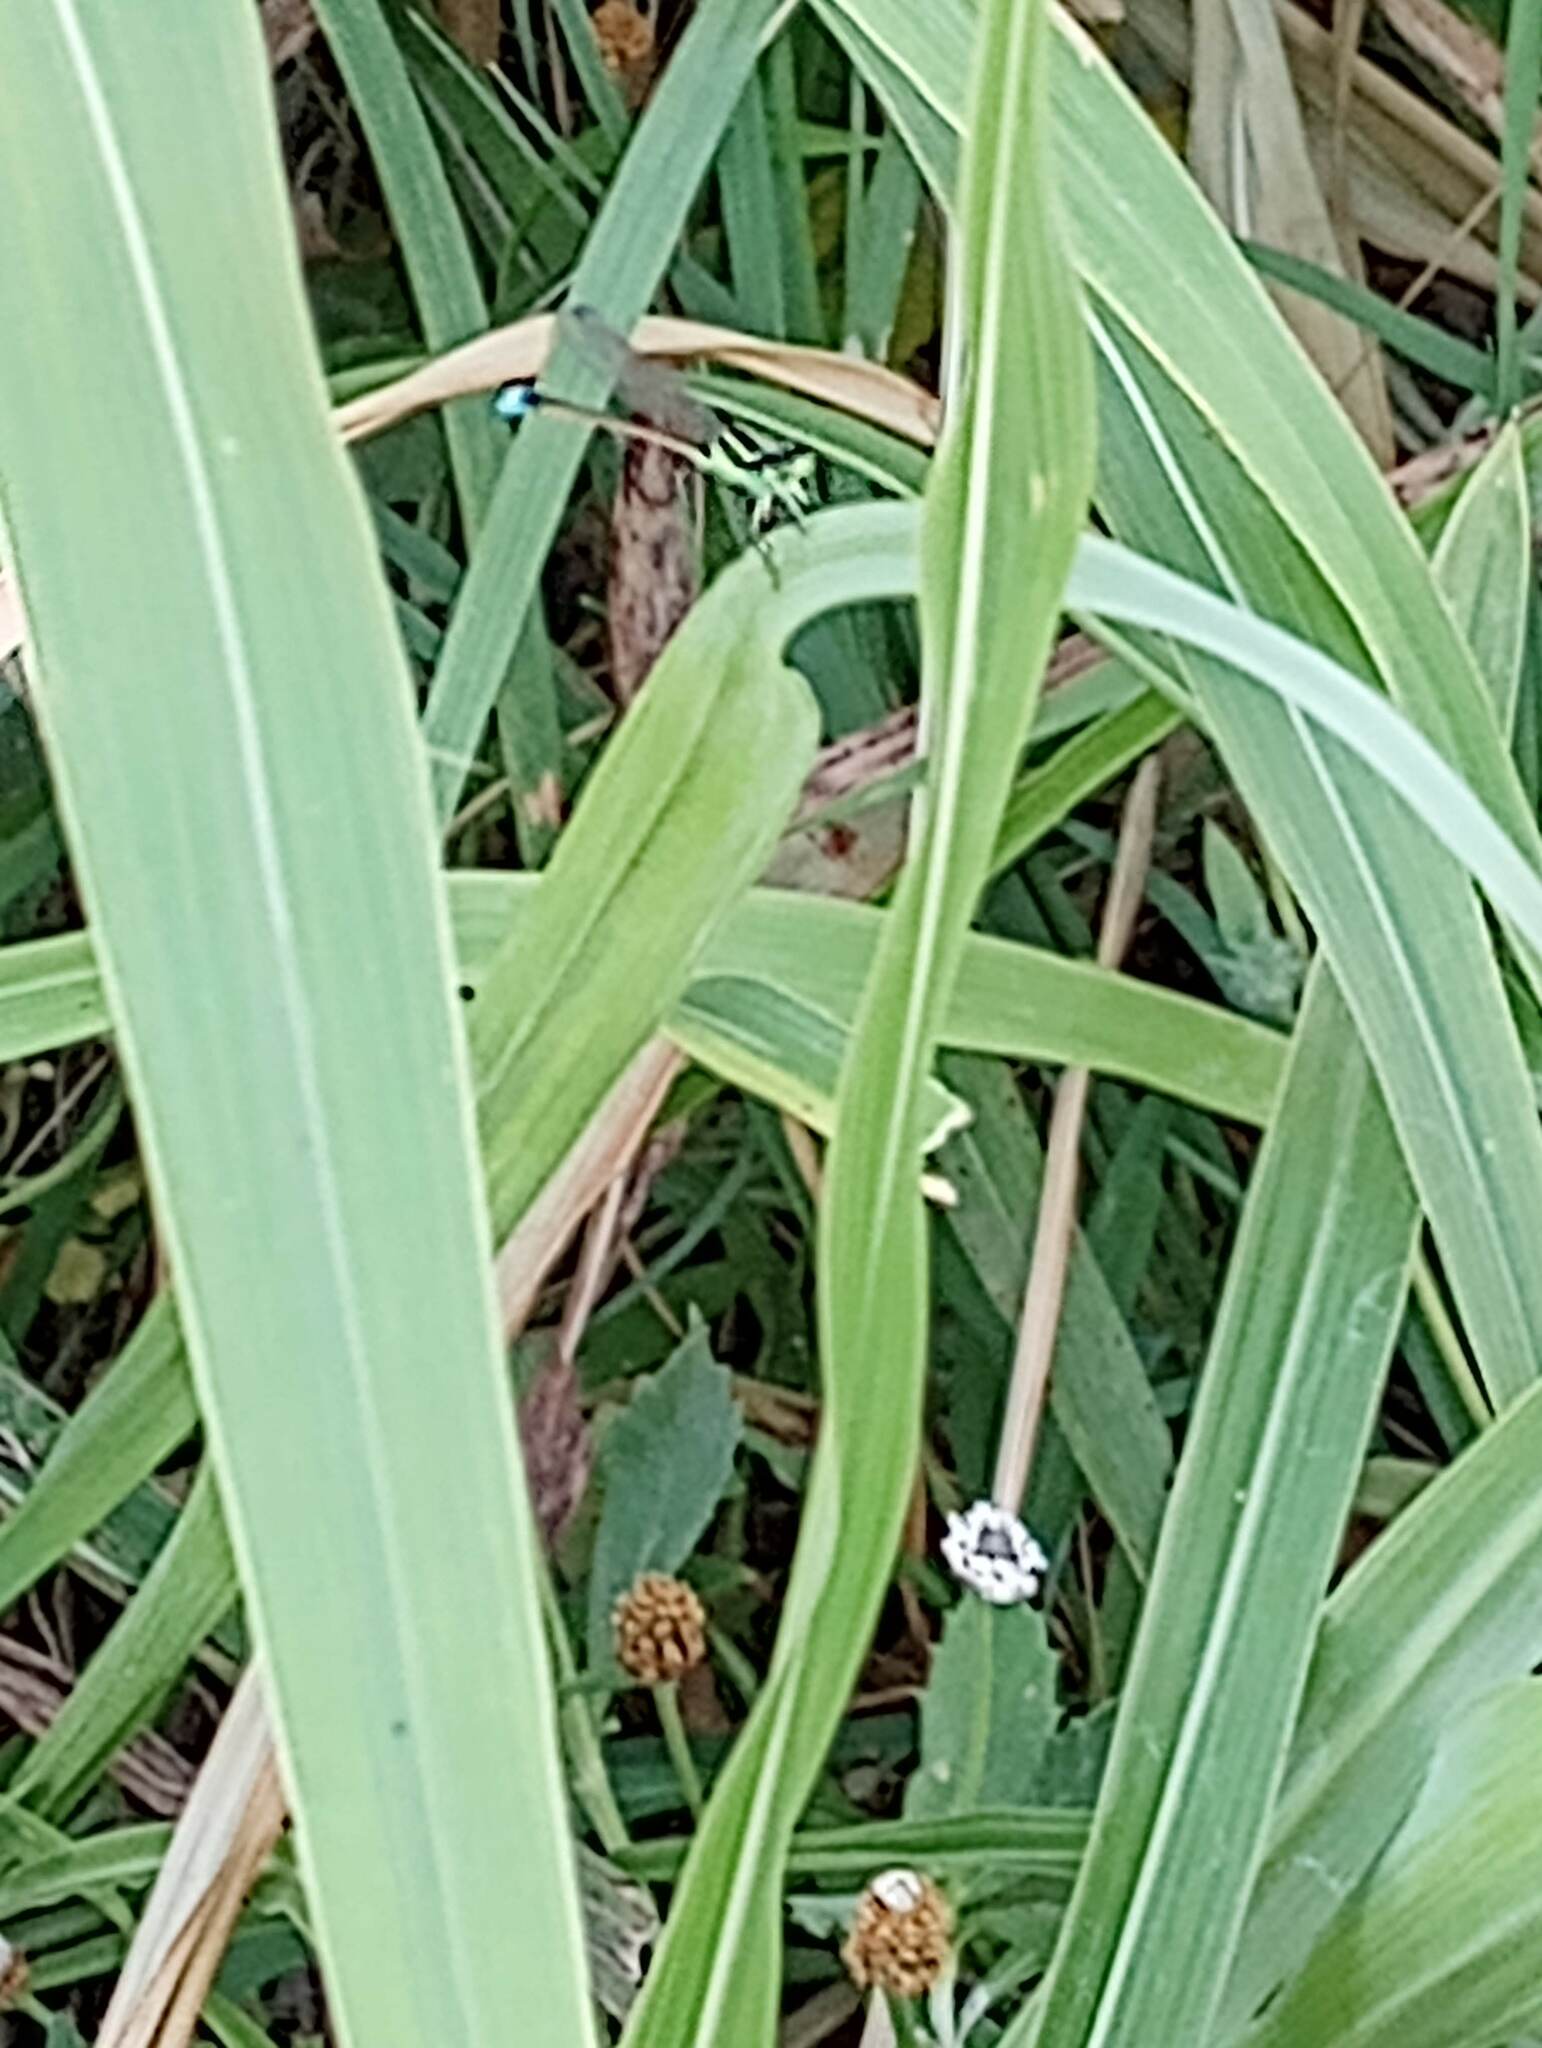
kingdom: Animalia
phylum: Arthropoda
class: Insecta
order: Odonata
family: Coenagrionidae
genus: Ischnura
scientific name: Ischnura ramburii
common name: Rambur's forktail
